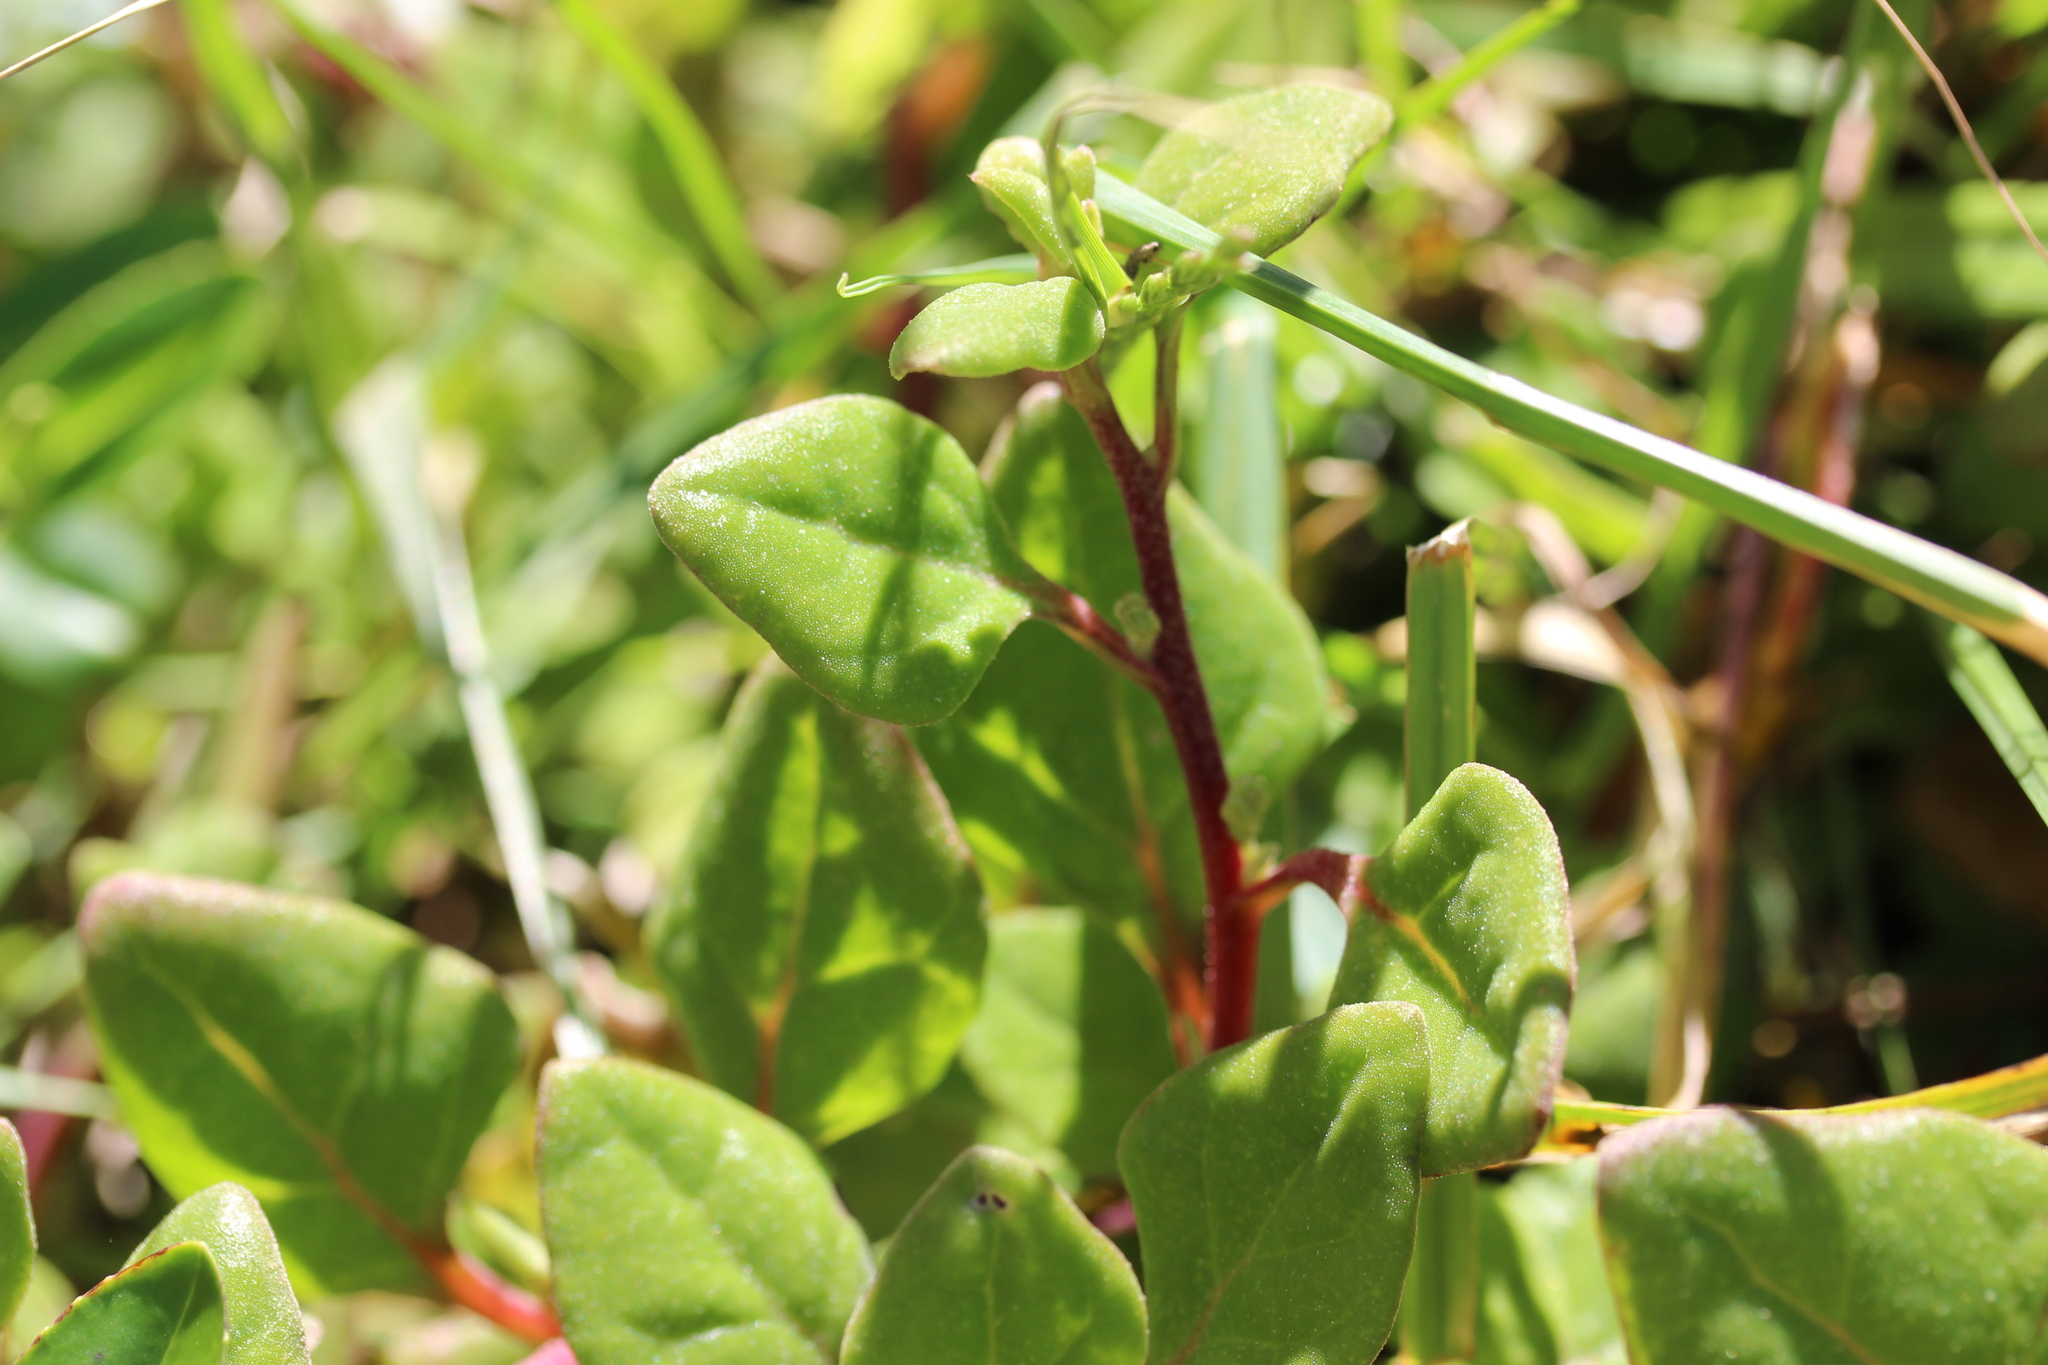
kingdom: Plantae
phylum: Tracheophyta
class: Magnoliopsida
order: Caryophyllales
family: Aizoaceae
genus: Tetragonia
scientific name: Tetragonia implexicoma
